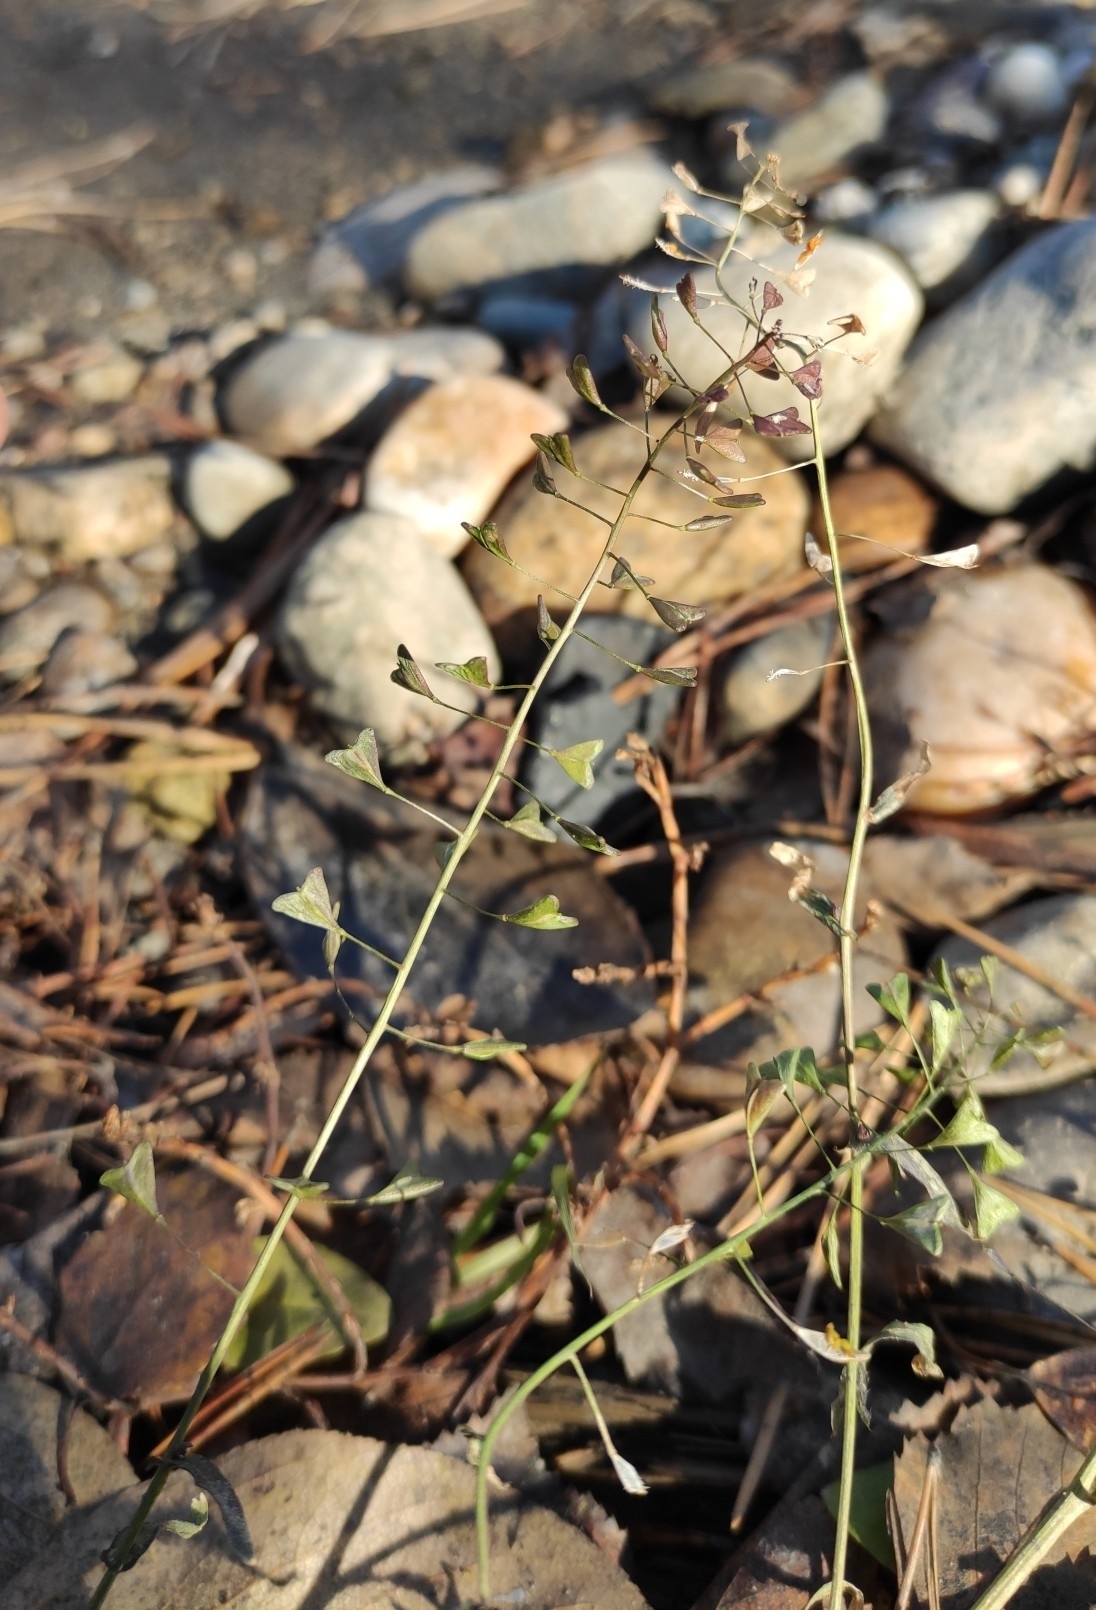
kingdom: Plantae
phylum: Tracheophyta
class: Magnoliopsida
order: Brassicales
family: Brassicaceae
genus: Capsella
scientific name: Capsella bursa-pastoris
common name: Shepherd's purse
